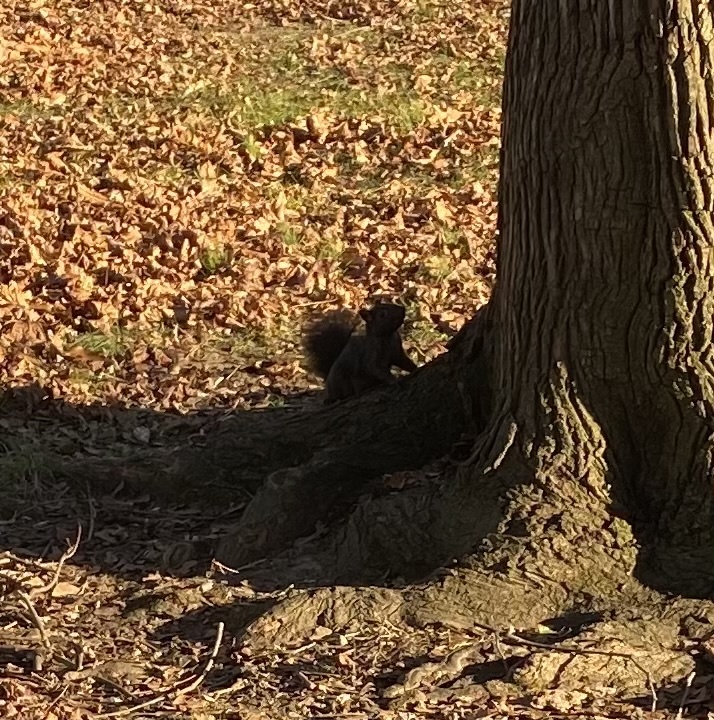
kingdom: Animalia
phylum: Chordata
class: Mammalia
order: Rodentia
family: Sciuridae
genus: Sciurus
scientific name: Sciurus carolinensis
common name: Eastern gray squirrel
